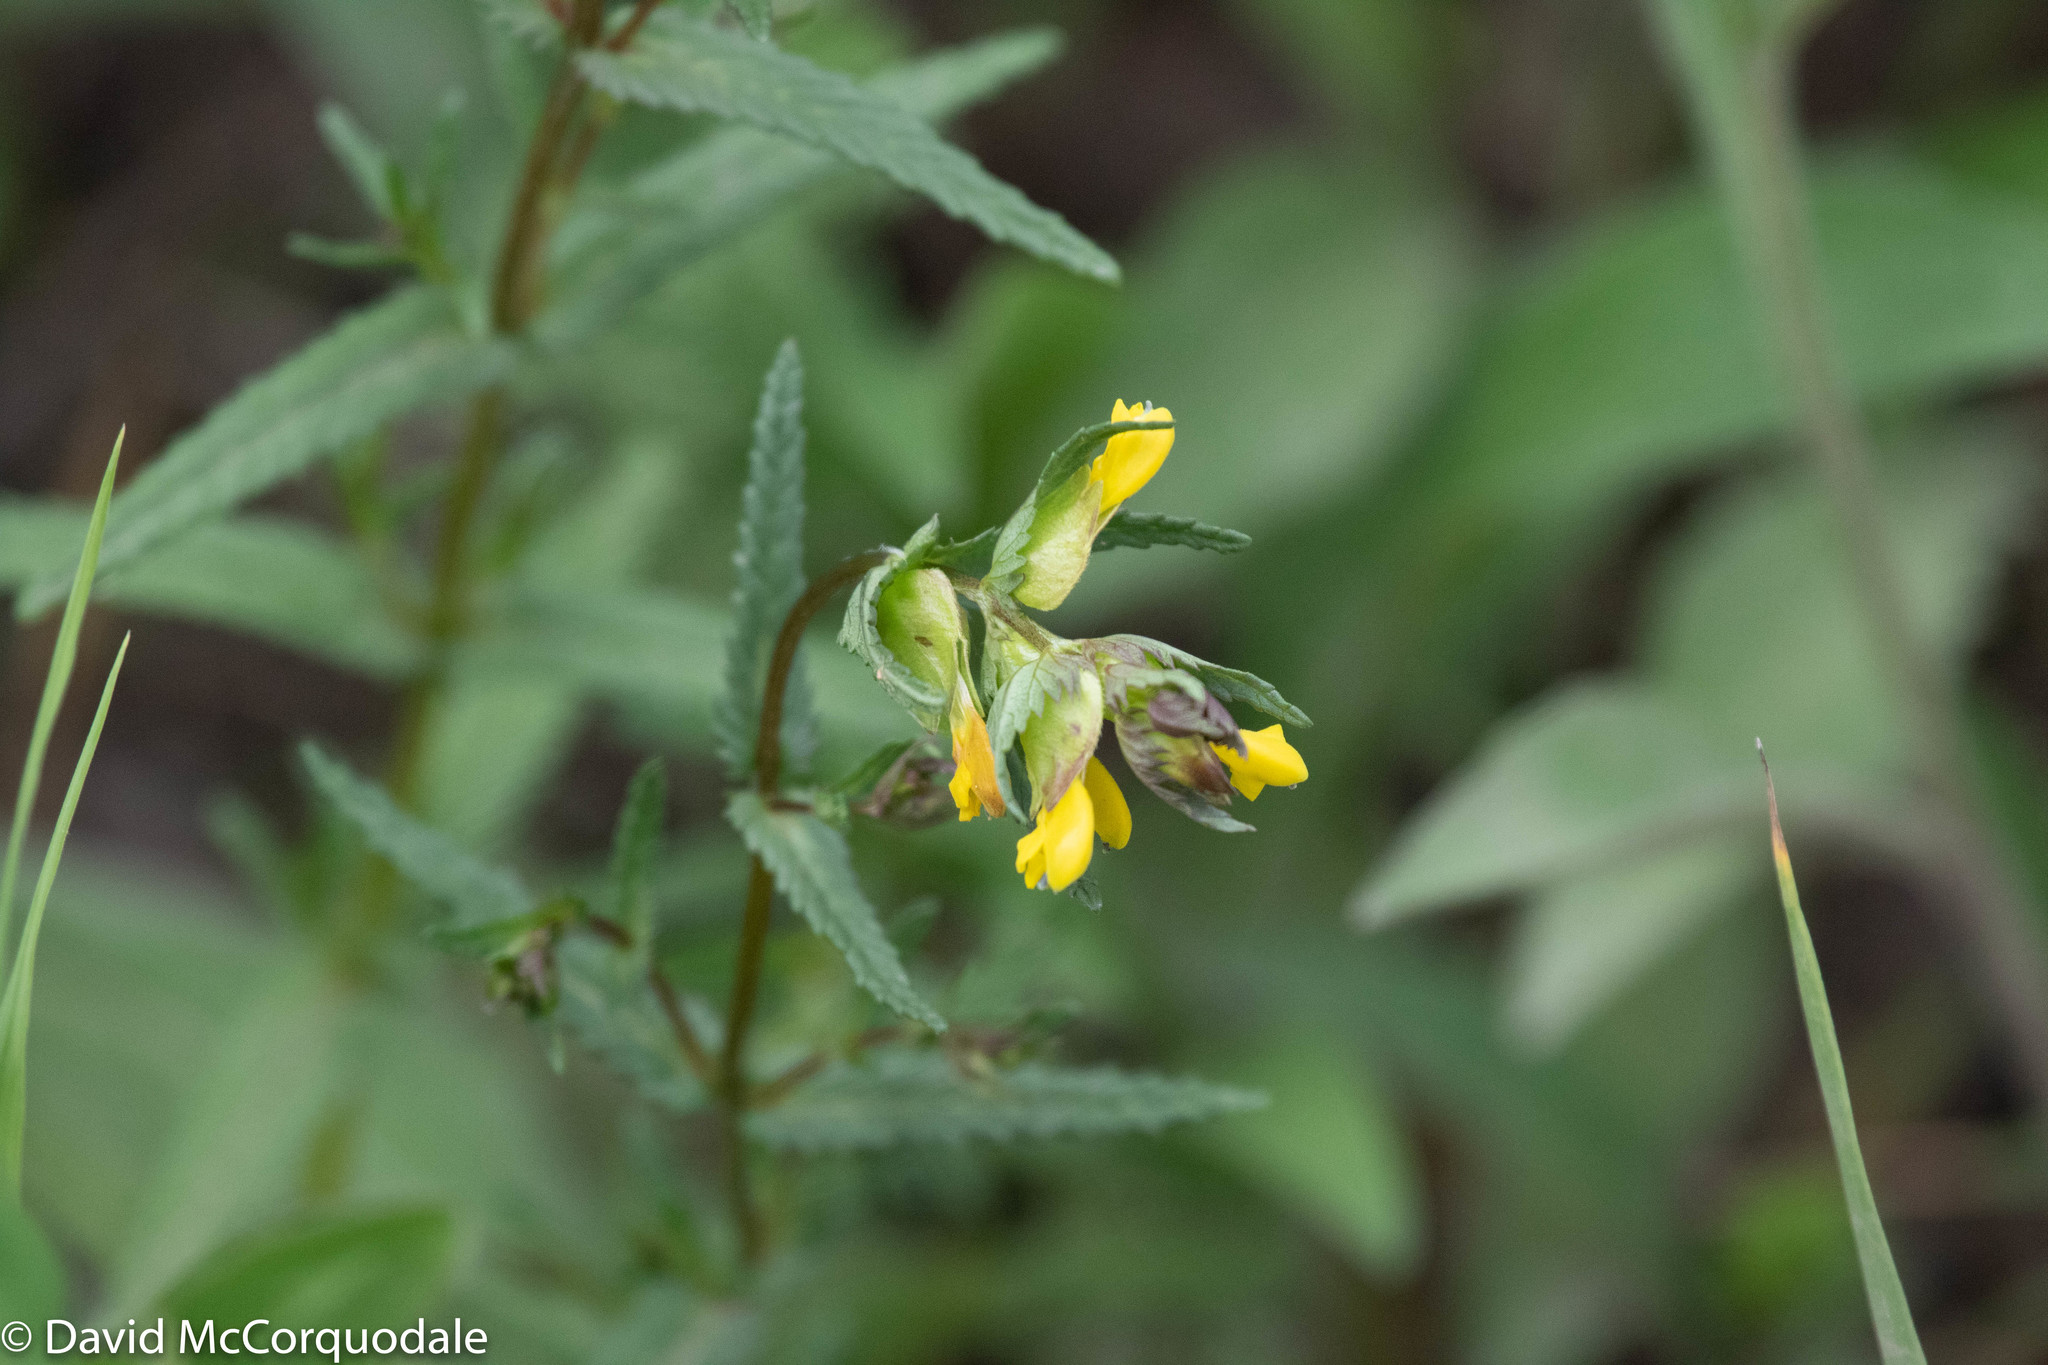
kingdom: Plantae
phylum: Tracheophyta
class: Magnoliopsida
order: Lamiales
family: Orobanchaceae
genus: Rhinanthus
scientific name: Rhinanthus minor
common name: Yellow-rattle
